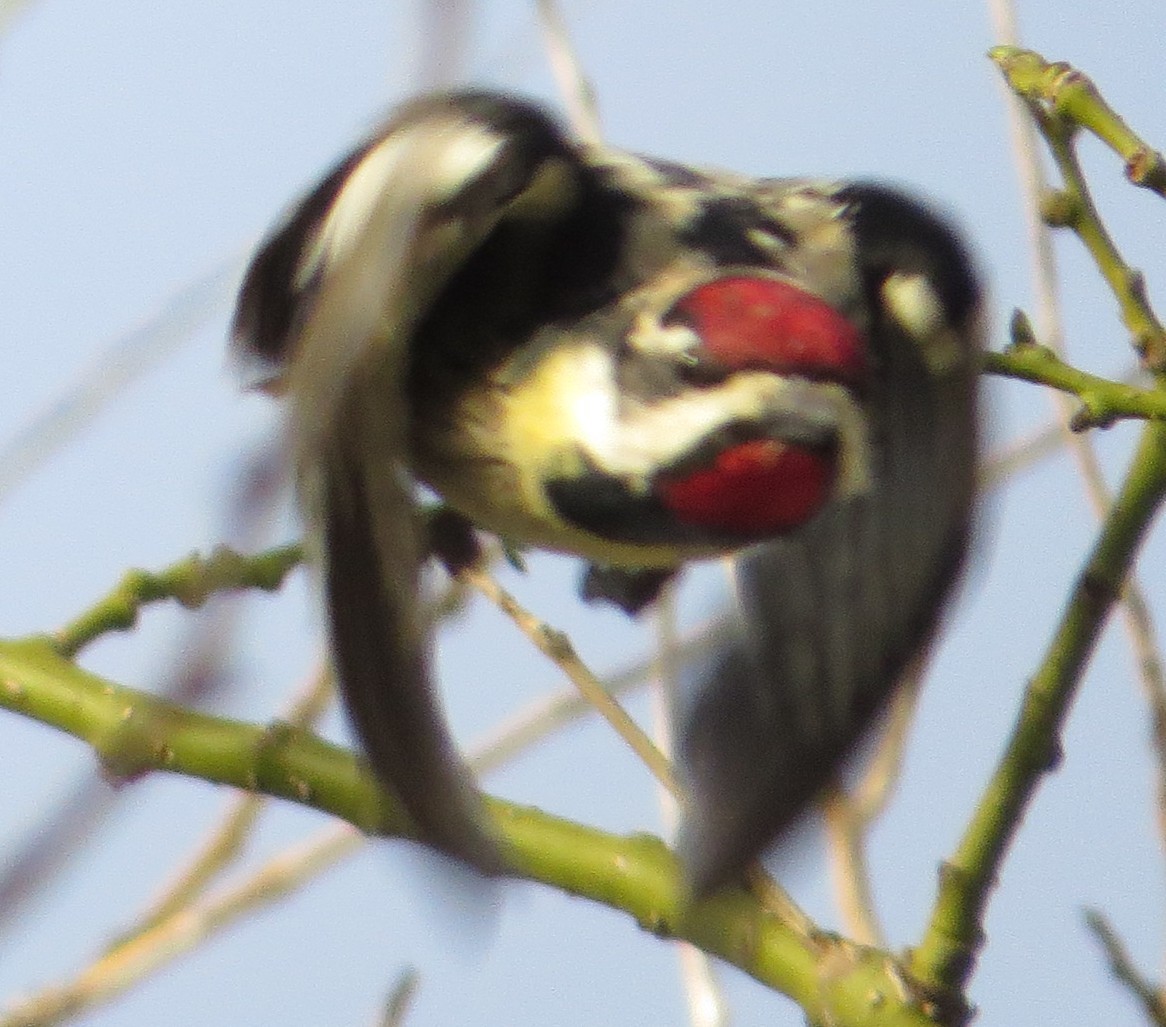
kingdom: Animalia
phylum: Chordata
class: Aves
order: Piciformes
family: Picidae
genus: Sphyrapicus
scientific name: Sphyrapicus varius
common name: Yellow-bellied sapsucker
